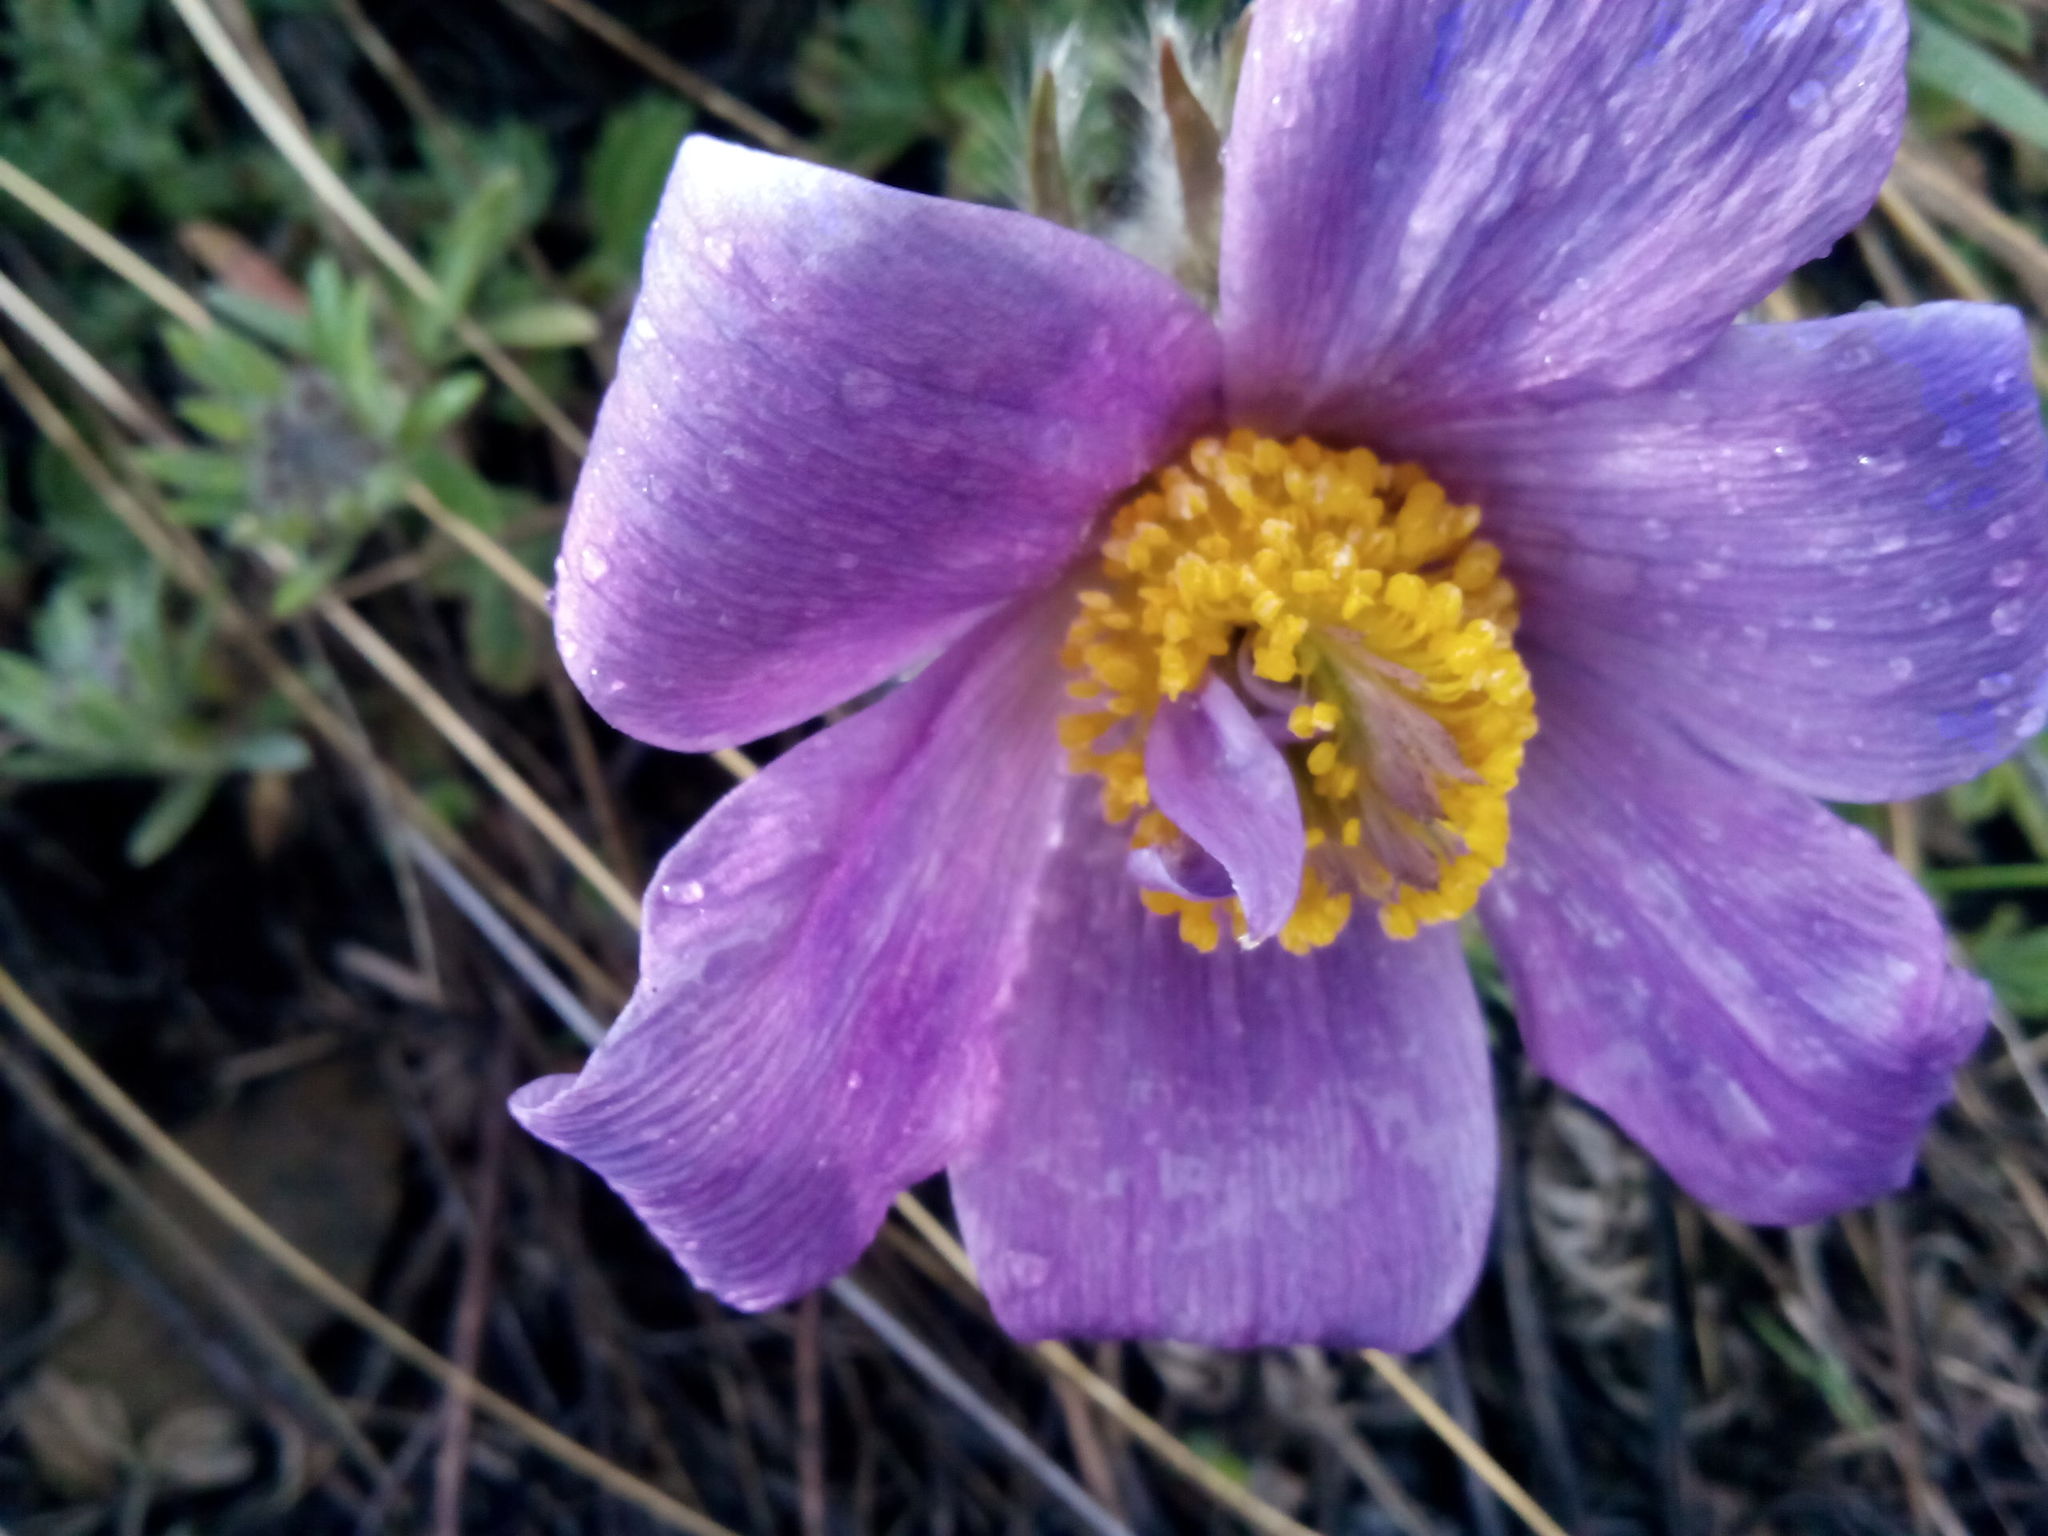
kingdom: Plantae
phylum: Tracheophyta
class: Magnoliopsida
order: Ranunculales
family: Ranunculaceae
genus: Pulsatilla
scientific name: Pulsatilla turczaninovii
